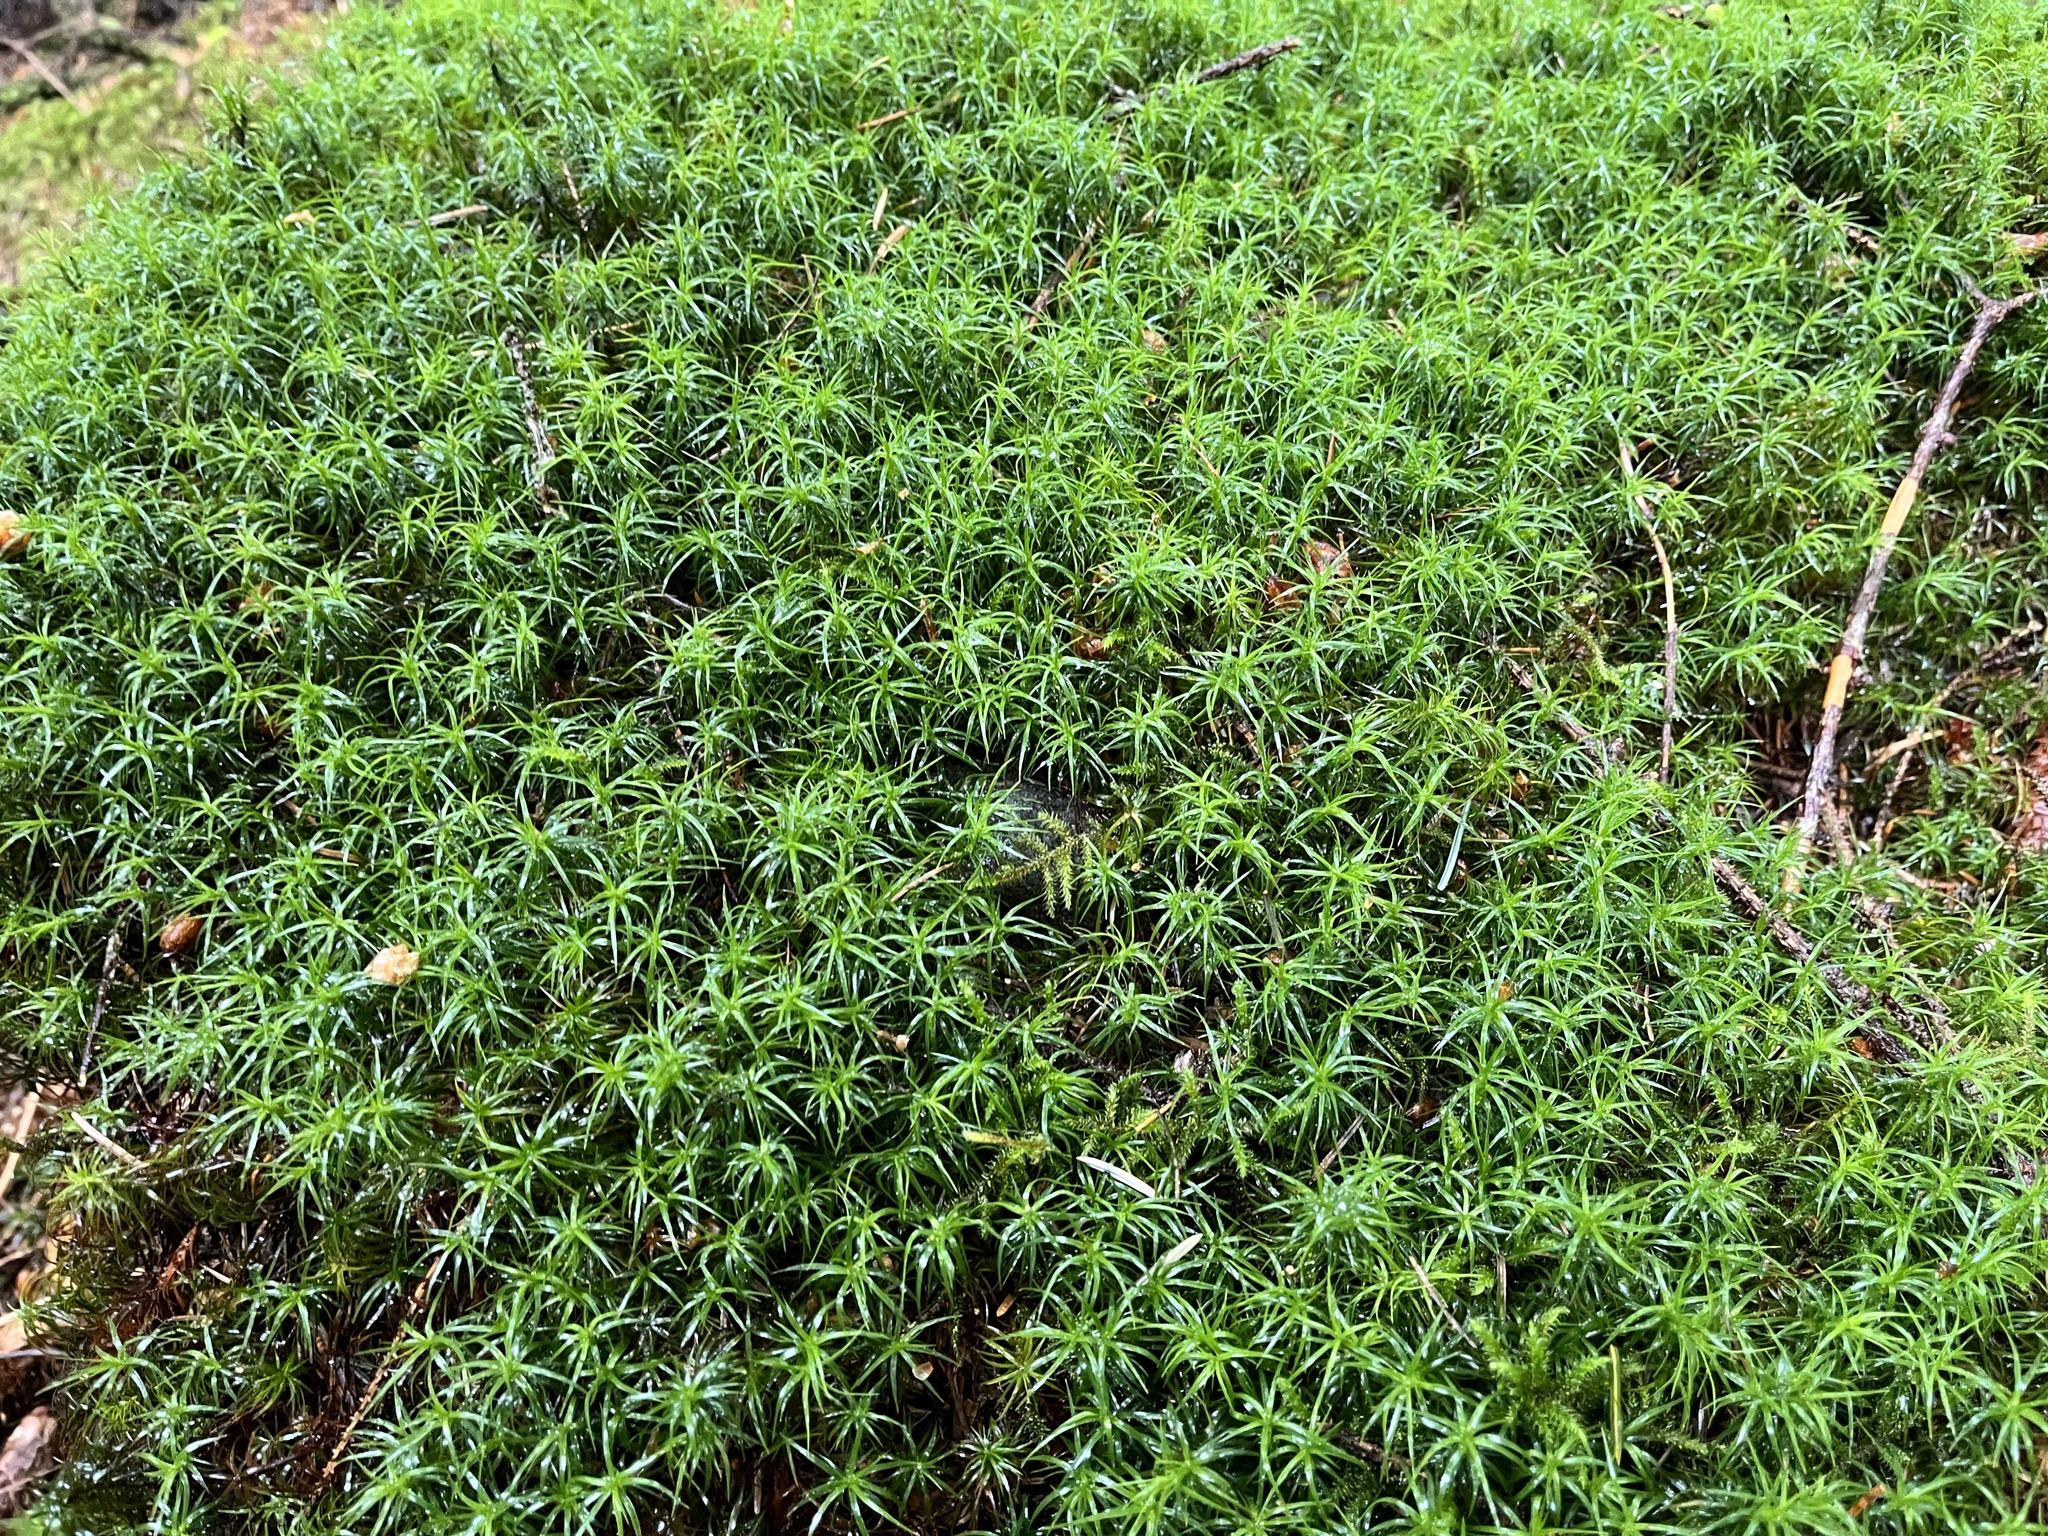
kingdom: Plantae
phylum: Bryophyta
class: Polytrichopsida
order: Polytrichales
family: Polytrichaceae
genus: Polytrichastrum
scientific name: Polytrichastrum alpinum
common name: Alpine haircap
